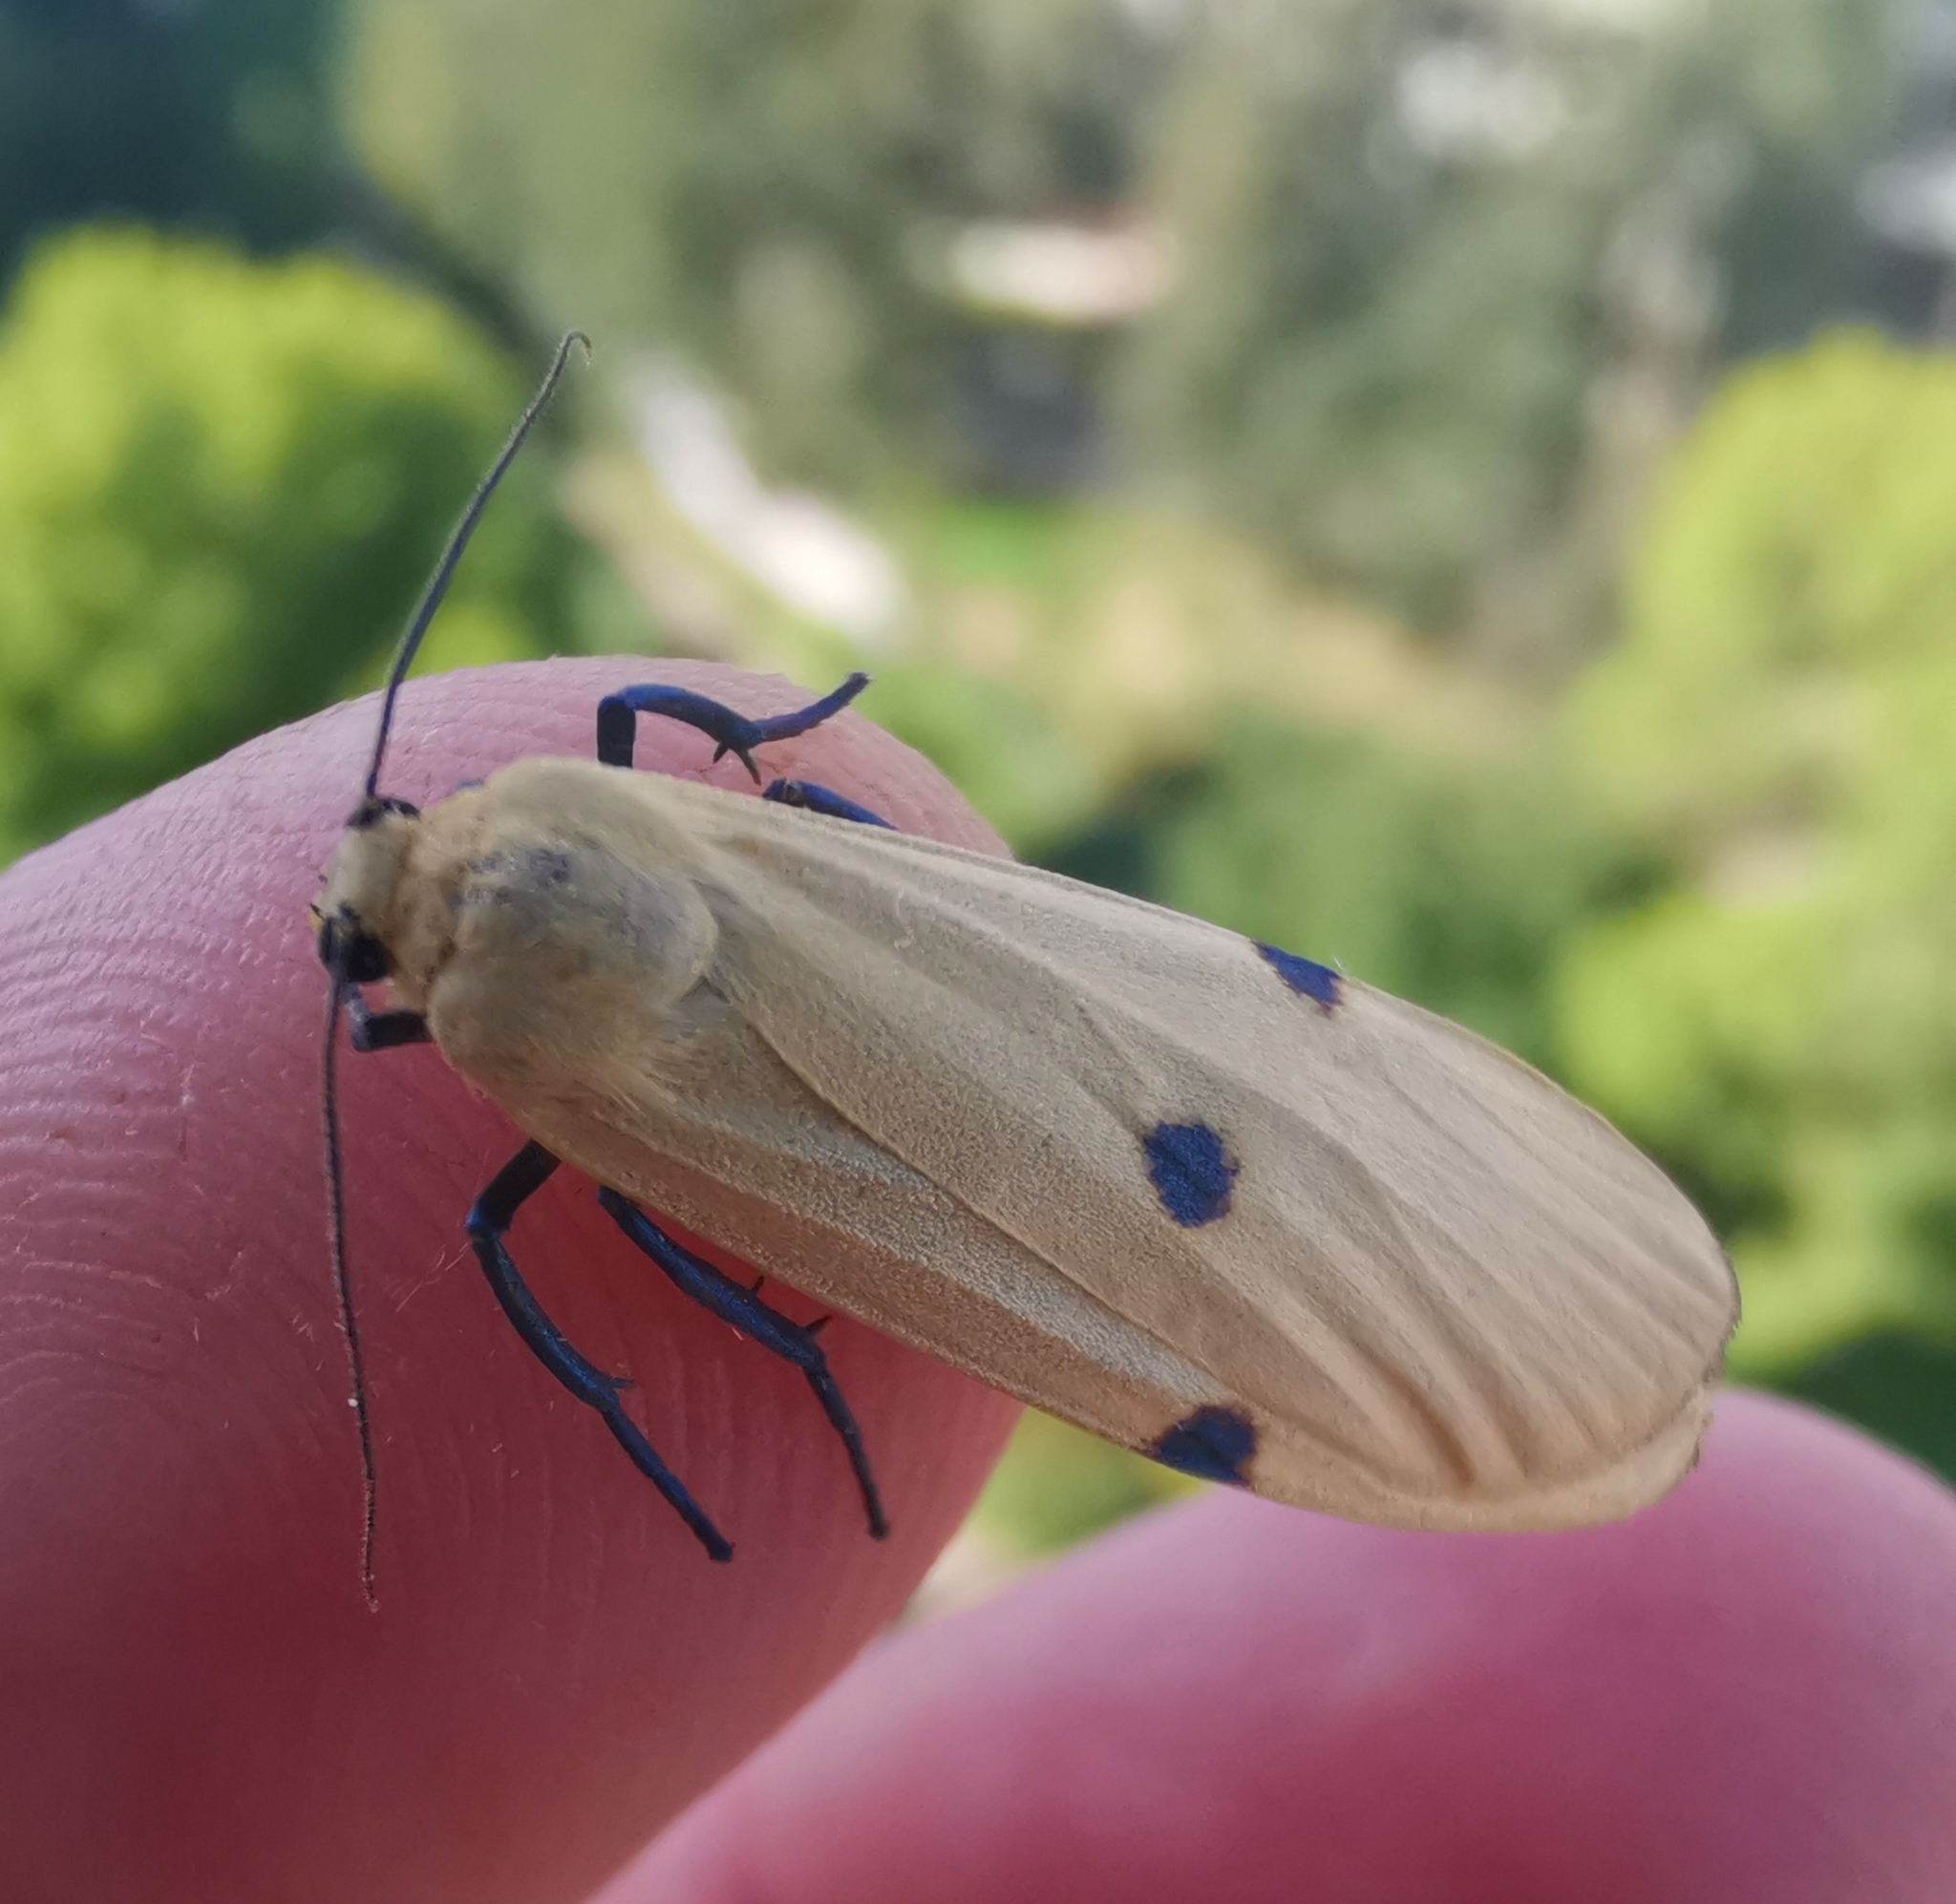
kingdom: Animalia
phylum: Arthropoda
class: Insecta
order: Lepidoptera
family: Erebidae
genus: Lithosia
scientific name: Lithosia quadra
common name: Four-spotted footman
